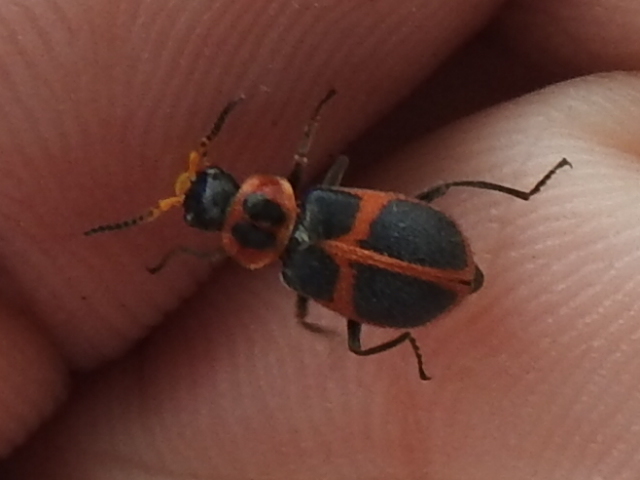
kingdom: Animalia
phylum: Arthropoda
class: Insecta
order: Coleoptera
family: Melyridae
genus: Collops
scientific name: Collops
